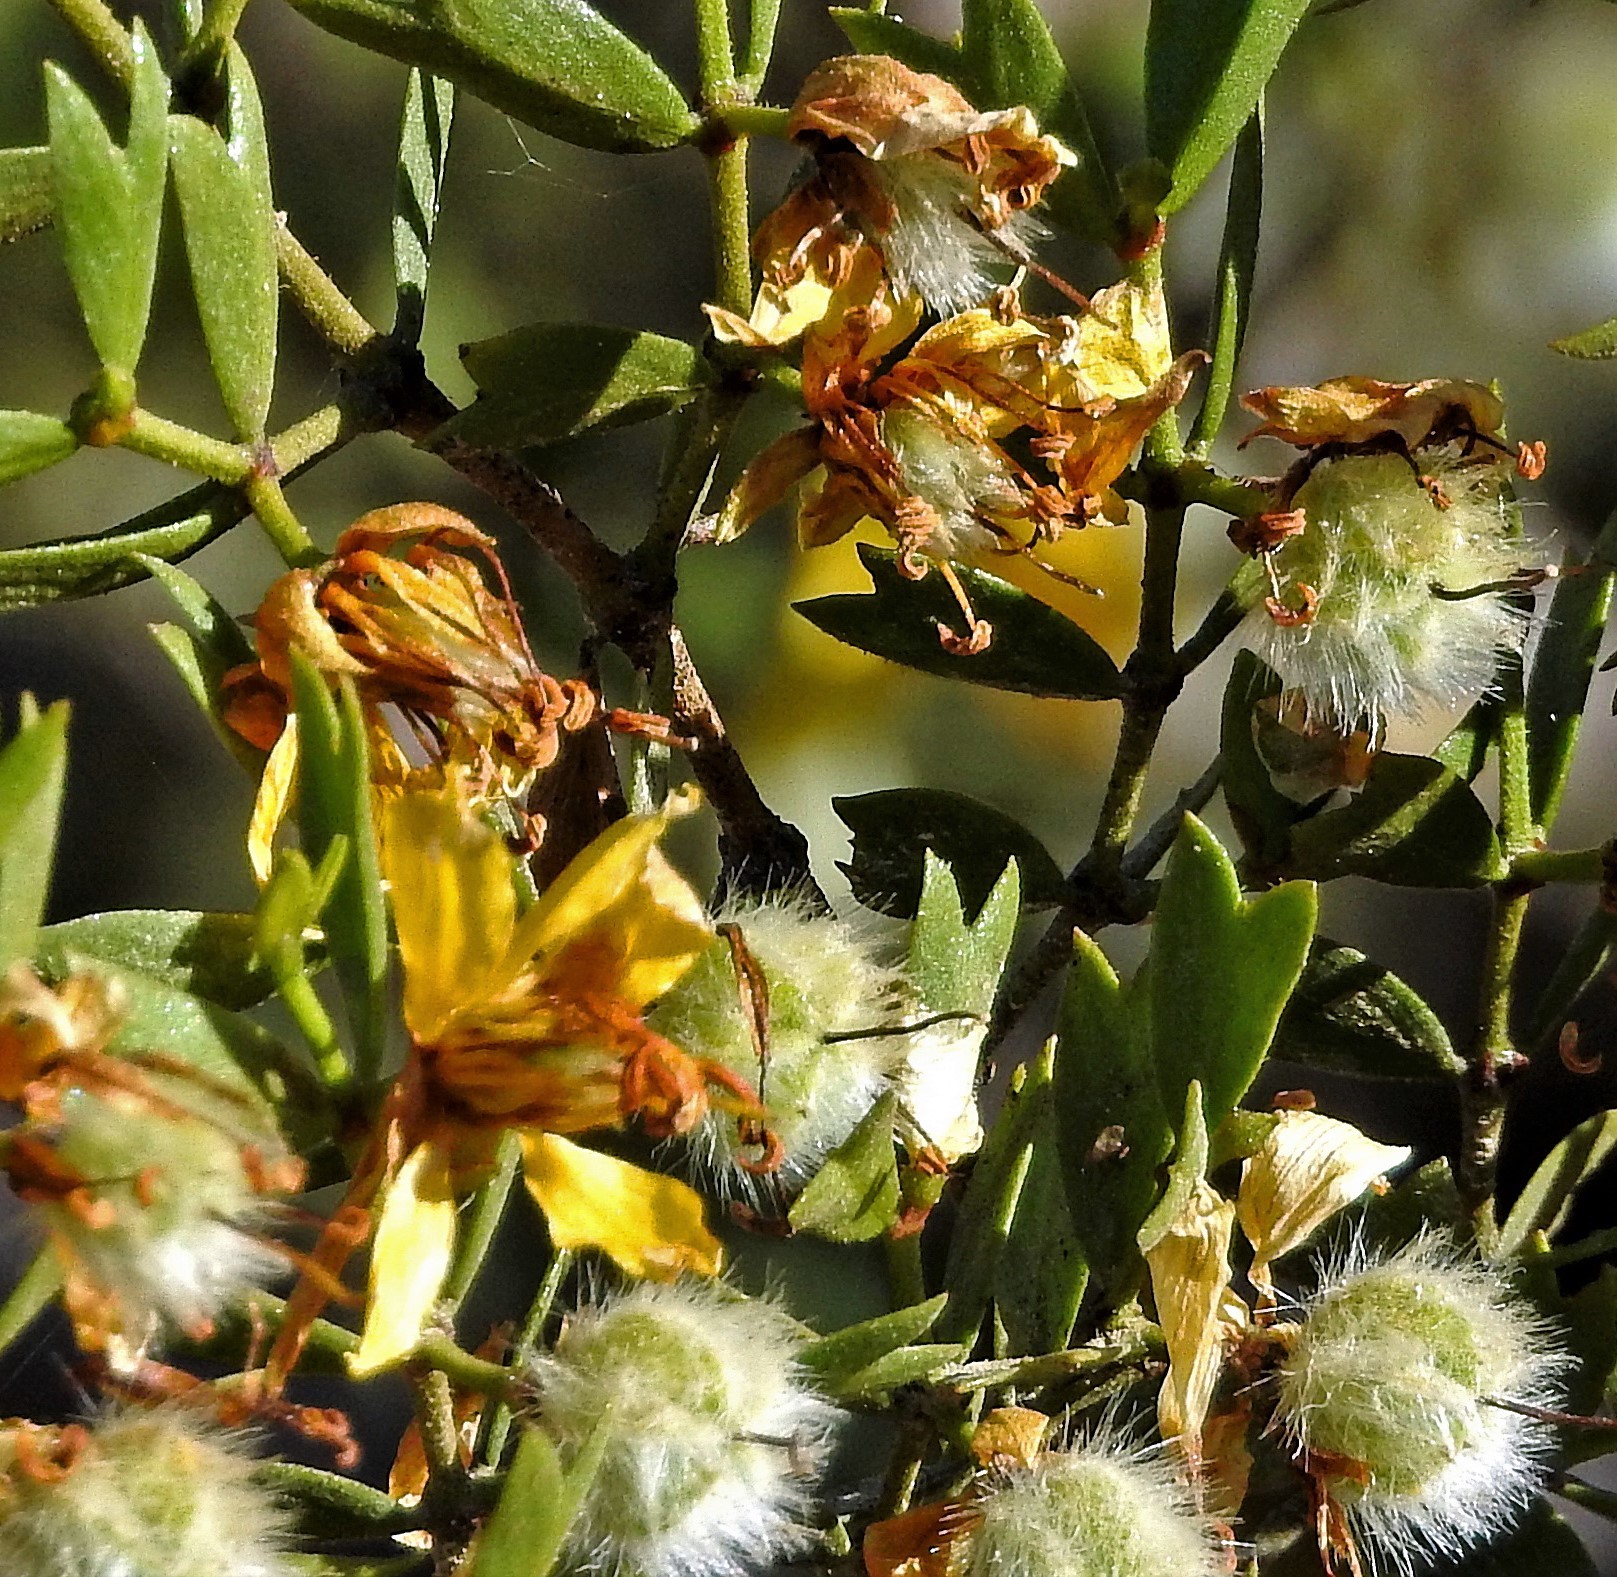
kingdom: Plantae
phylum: Tracheophyta
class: Magnoliopsida
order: Zygophyllales
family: Zygophyllaceae
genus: Larrea
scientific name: Larrea cuneifolia
